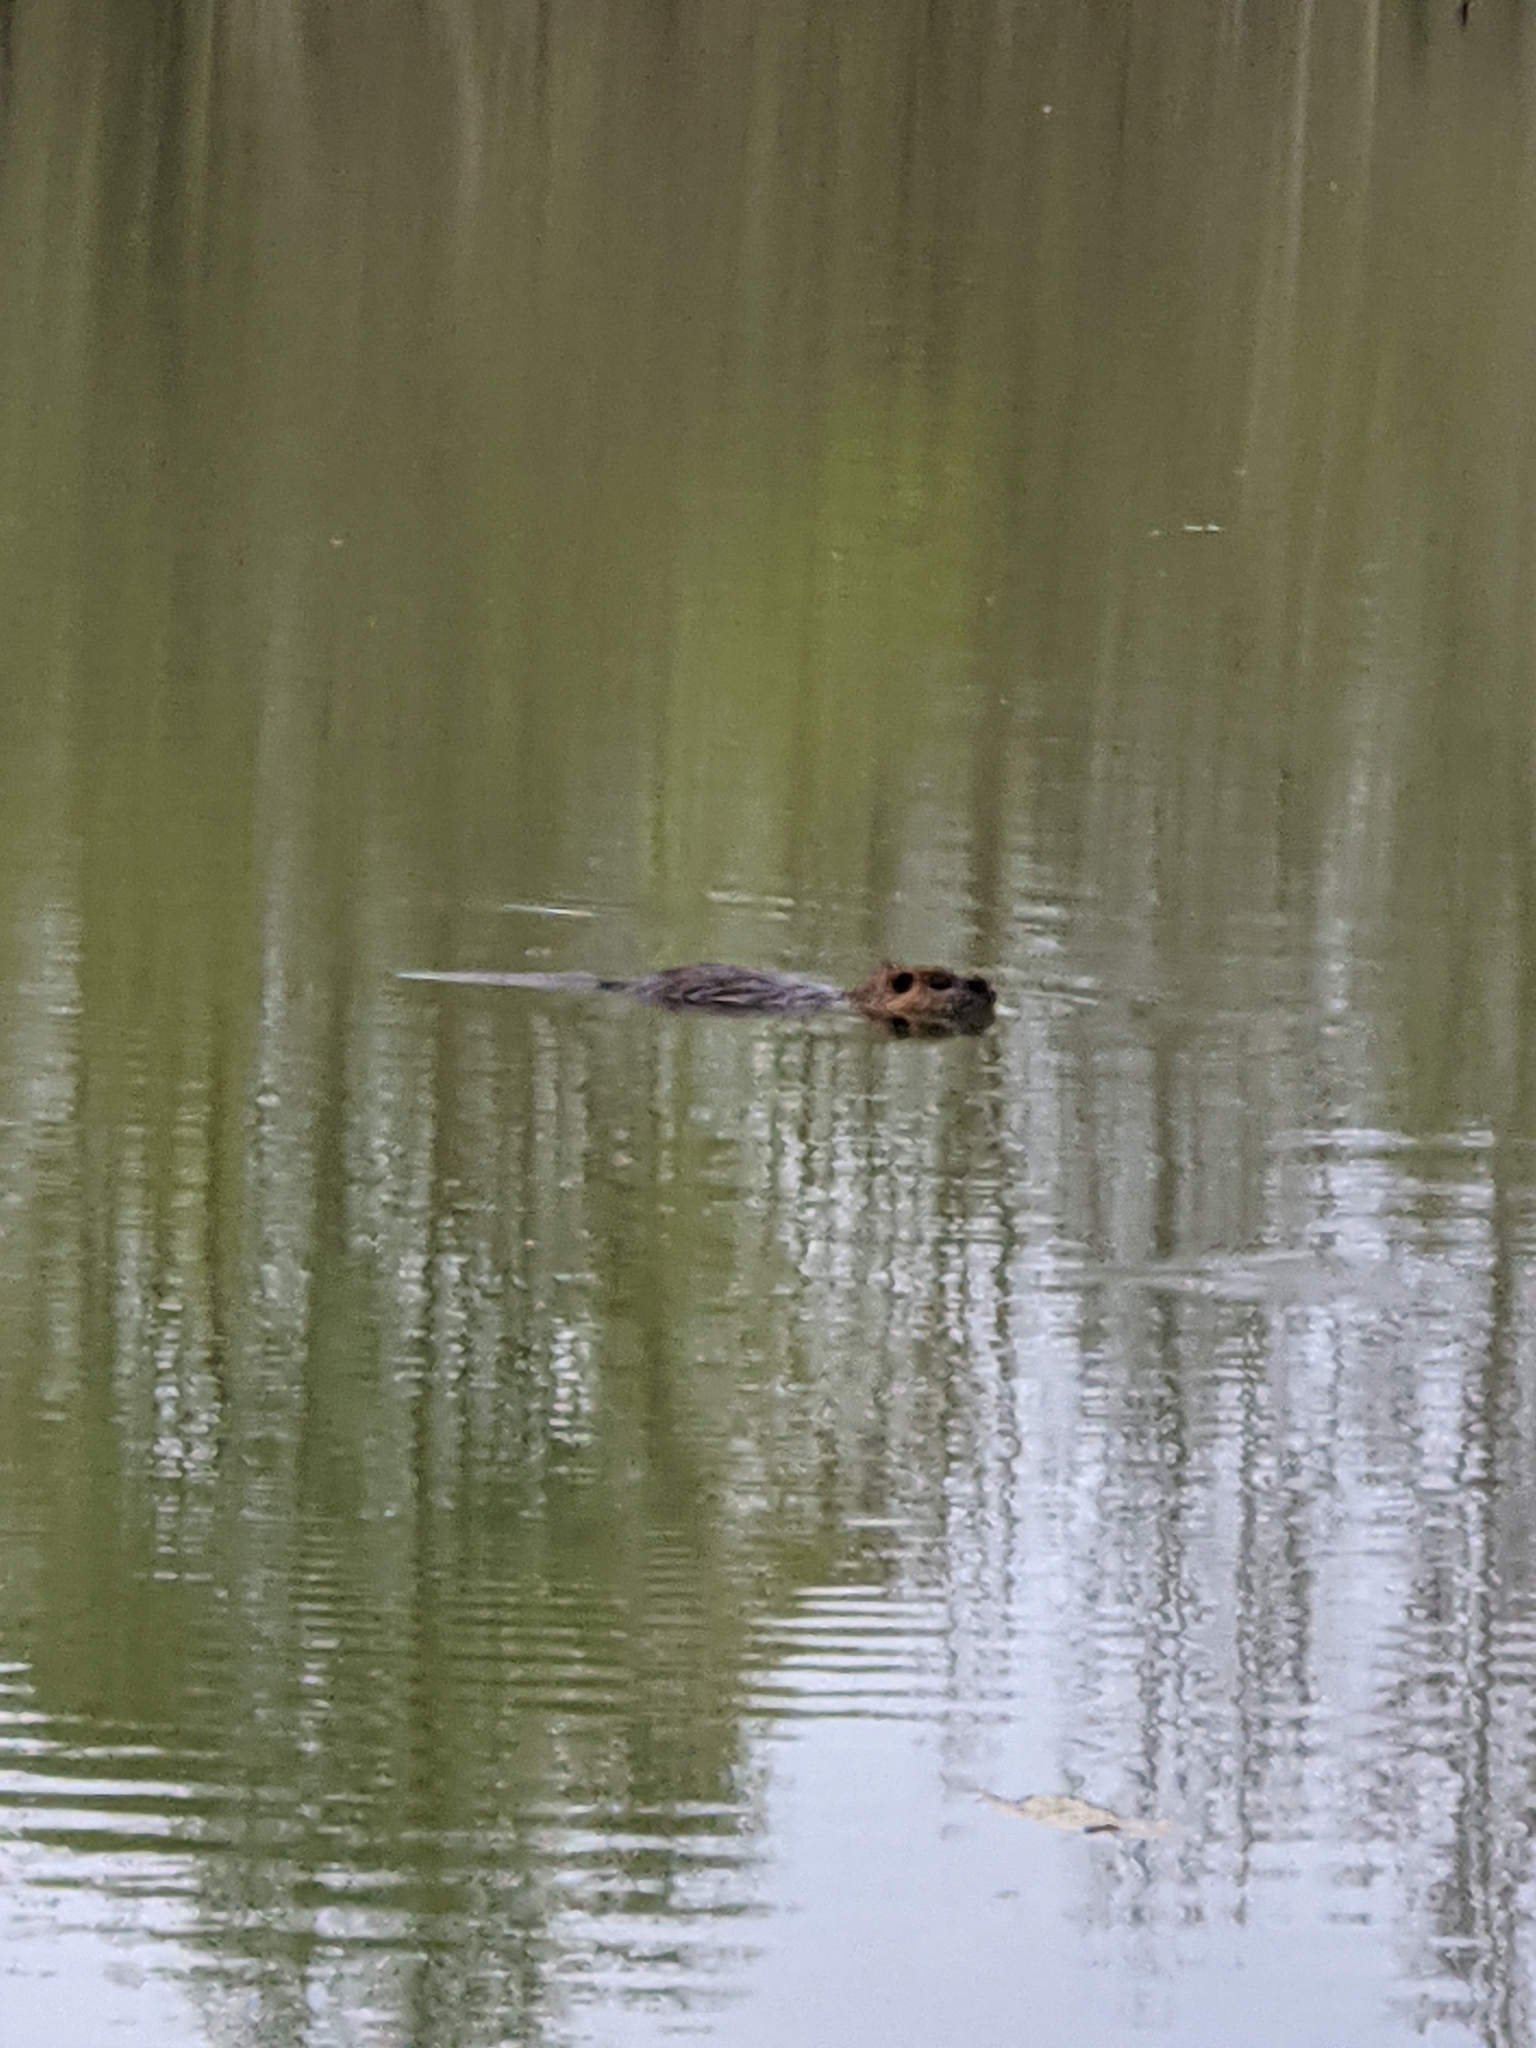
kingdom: Animalia
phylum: Chordata
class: Mammalia
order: Rodentia
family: Myocastoridae
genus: Myocastor
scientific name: Myocastor coypus
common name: Coypu
